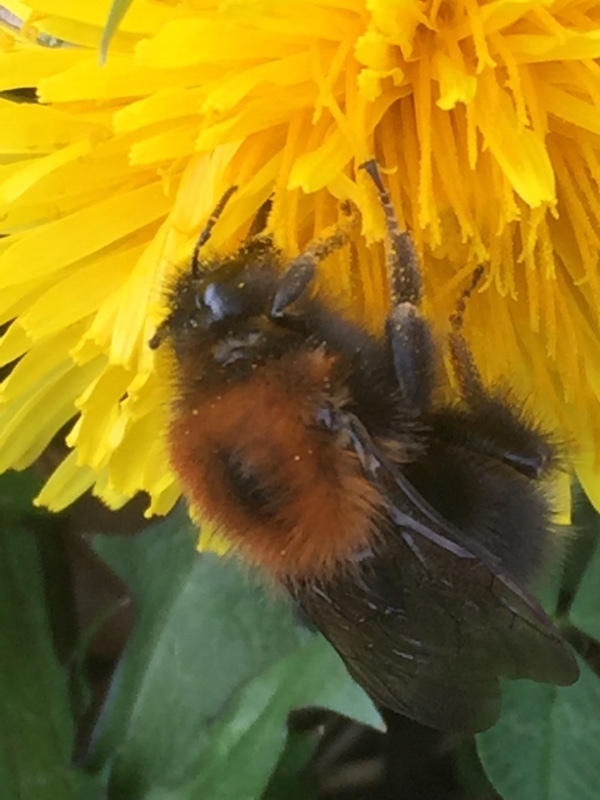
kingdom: Animalia
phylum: Arthropoda
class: Insecta
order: Hymenoptera
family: Apidae
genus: Bombus
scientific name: Bombus hypnorum
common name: New garden bumblebee
